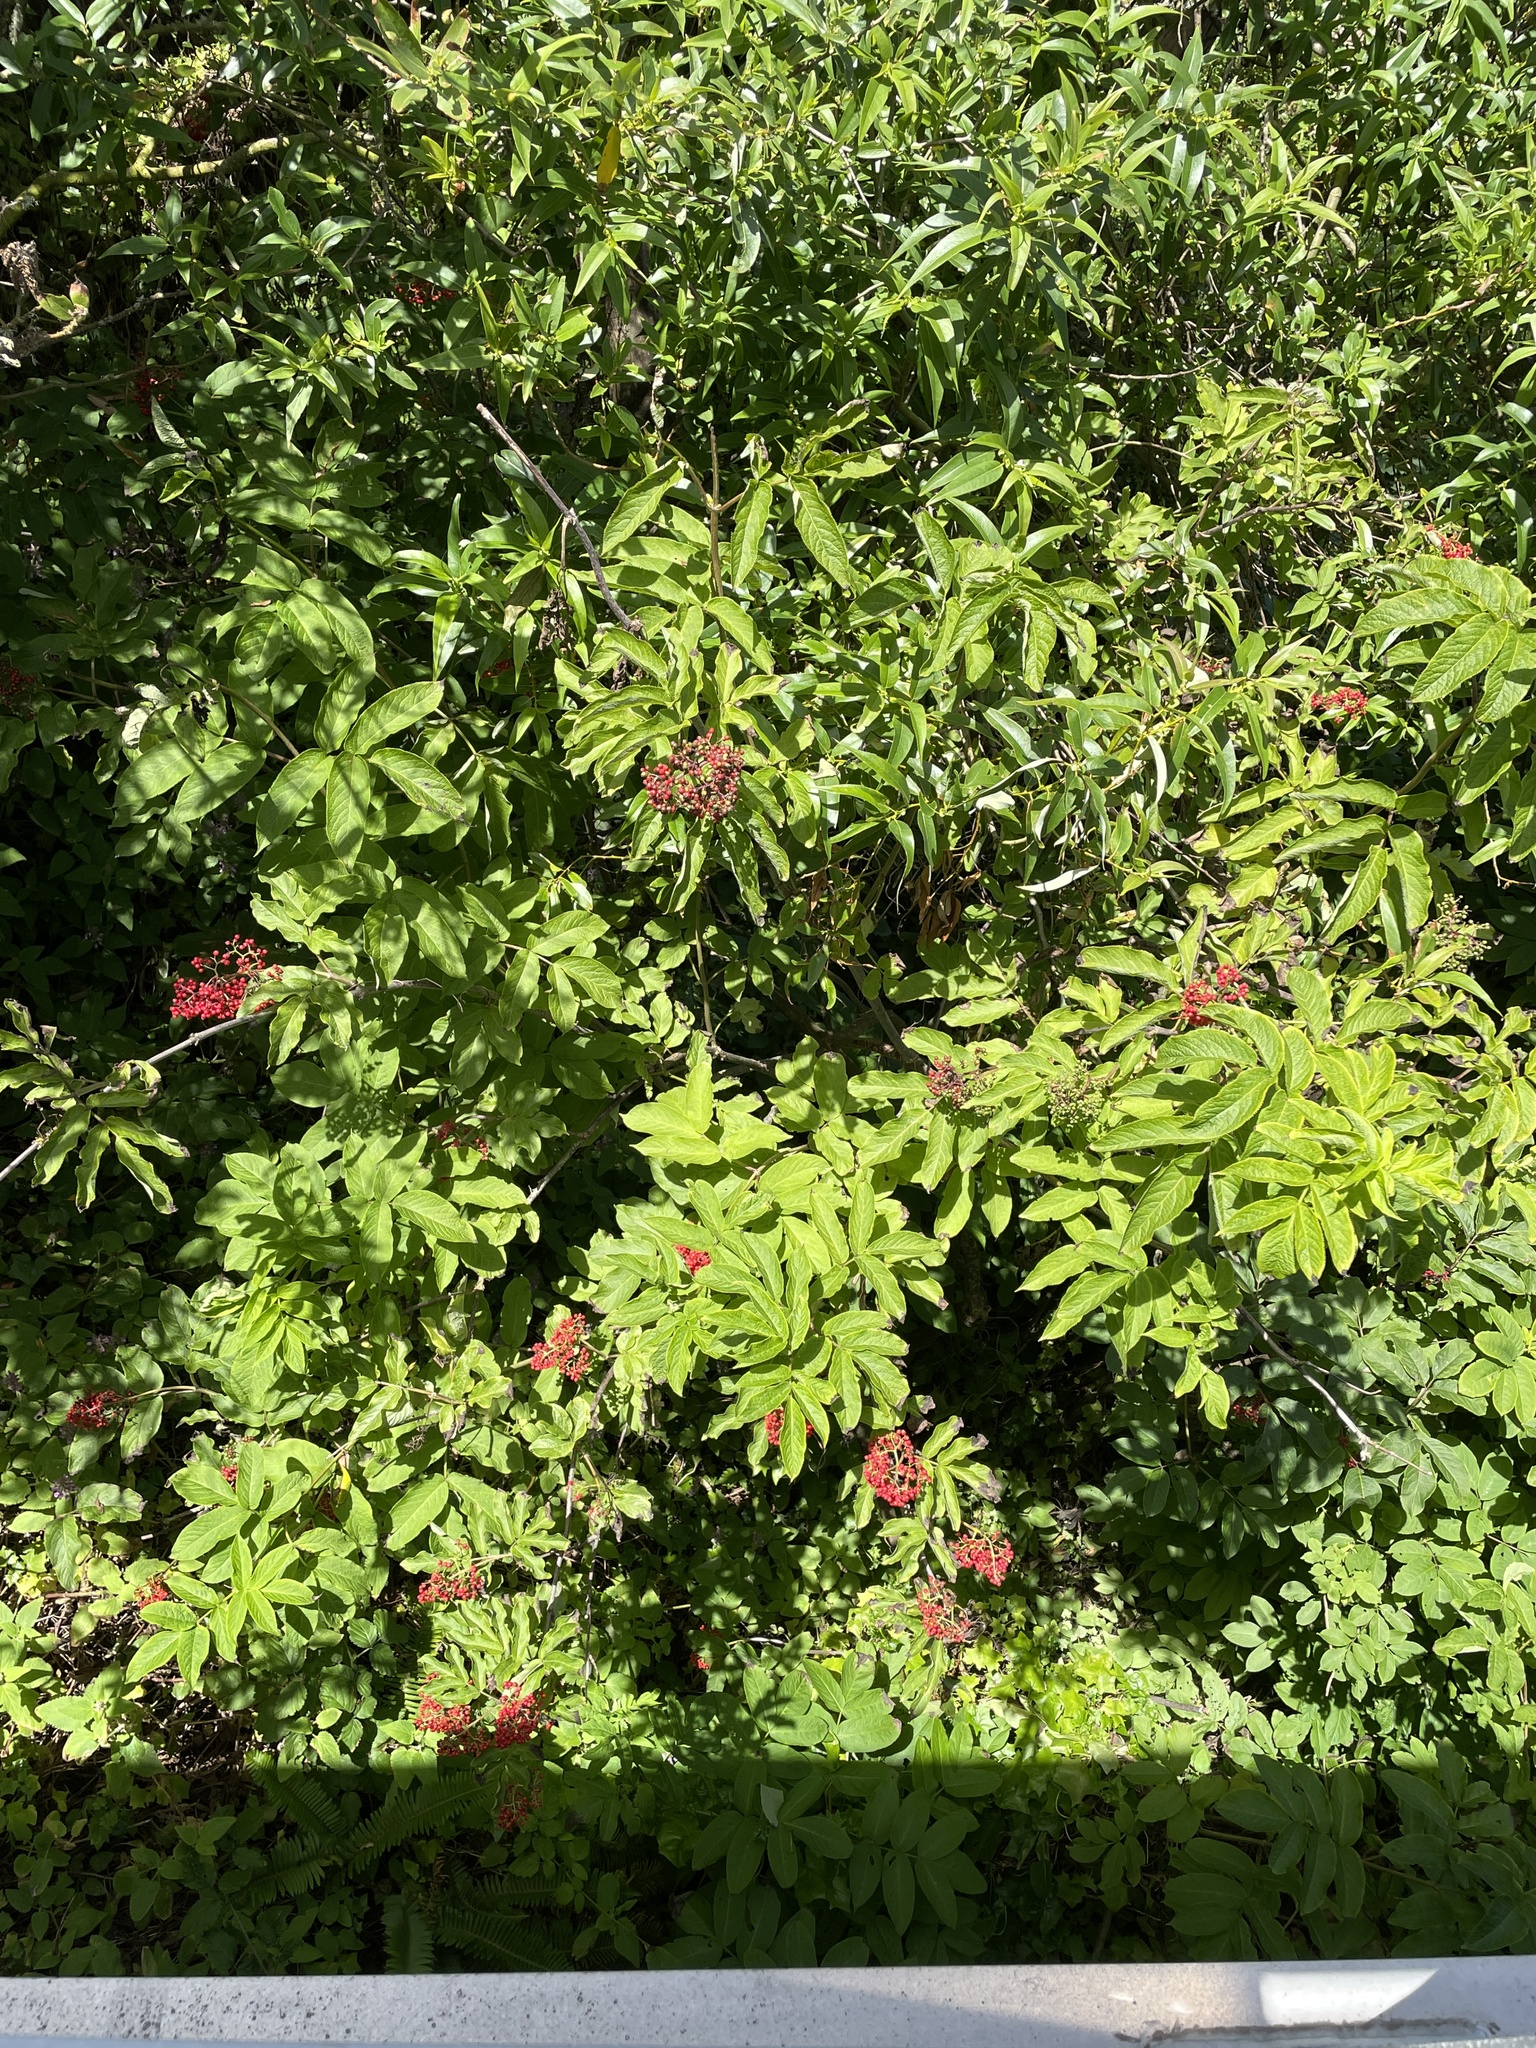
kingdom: Plantae
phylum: Tracheophyta
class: Magnoliopsida
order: Dipsacales
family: Viburnaceae
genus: Sambucus
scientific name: Sambucus racemosa
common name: Red-berried elder
